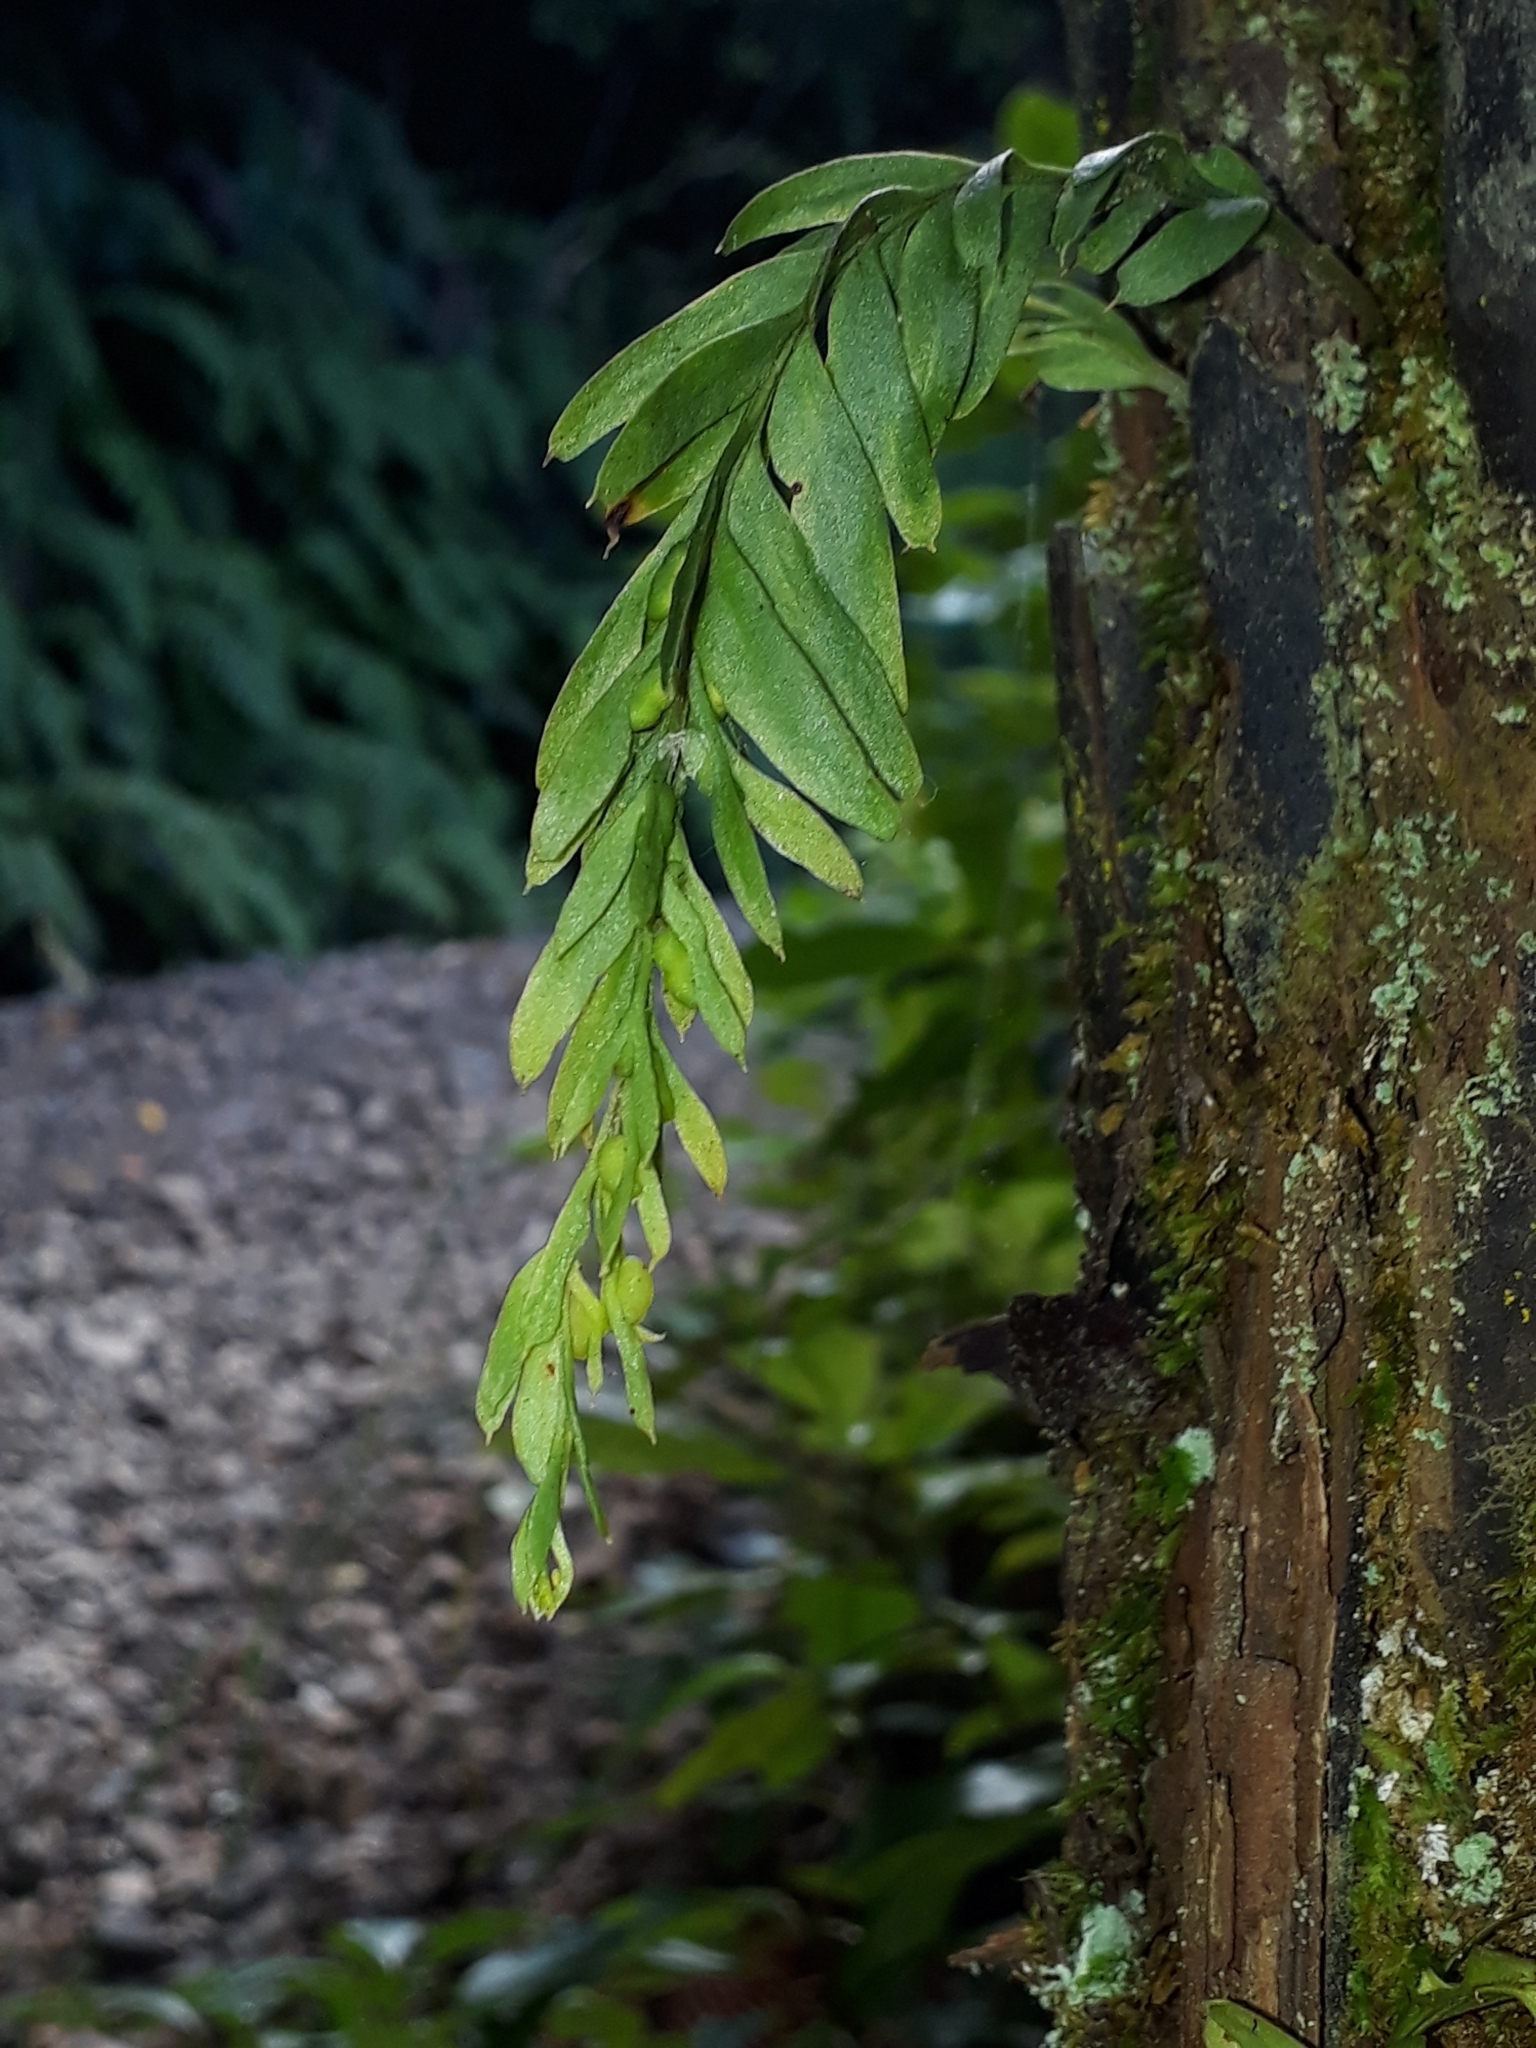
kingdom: Plantae
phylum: Tracheophyta
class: Polypodiopsida
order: Psilotales
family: Psilotaceae
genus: Tmesipteris
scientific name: Tmesipteris elongata
